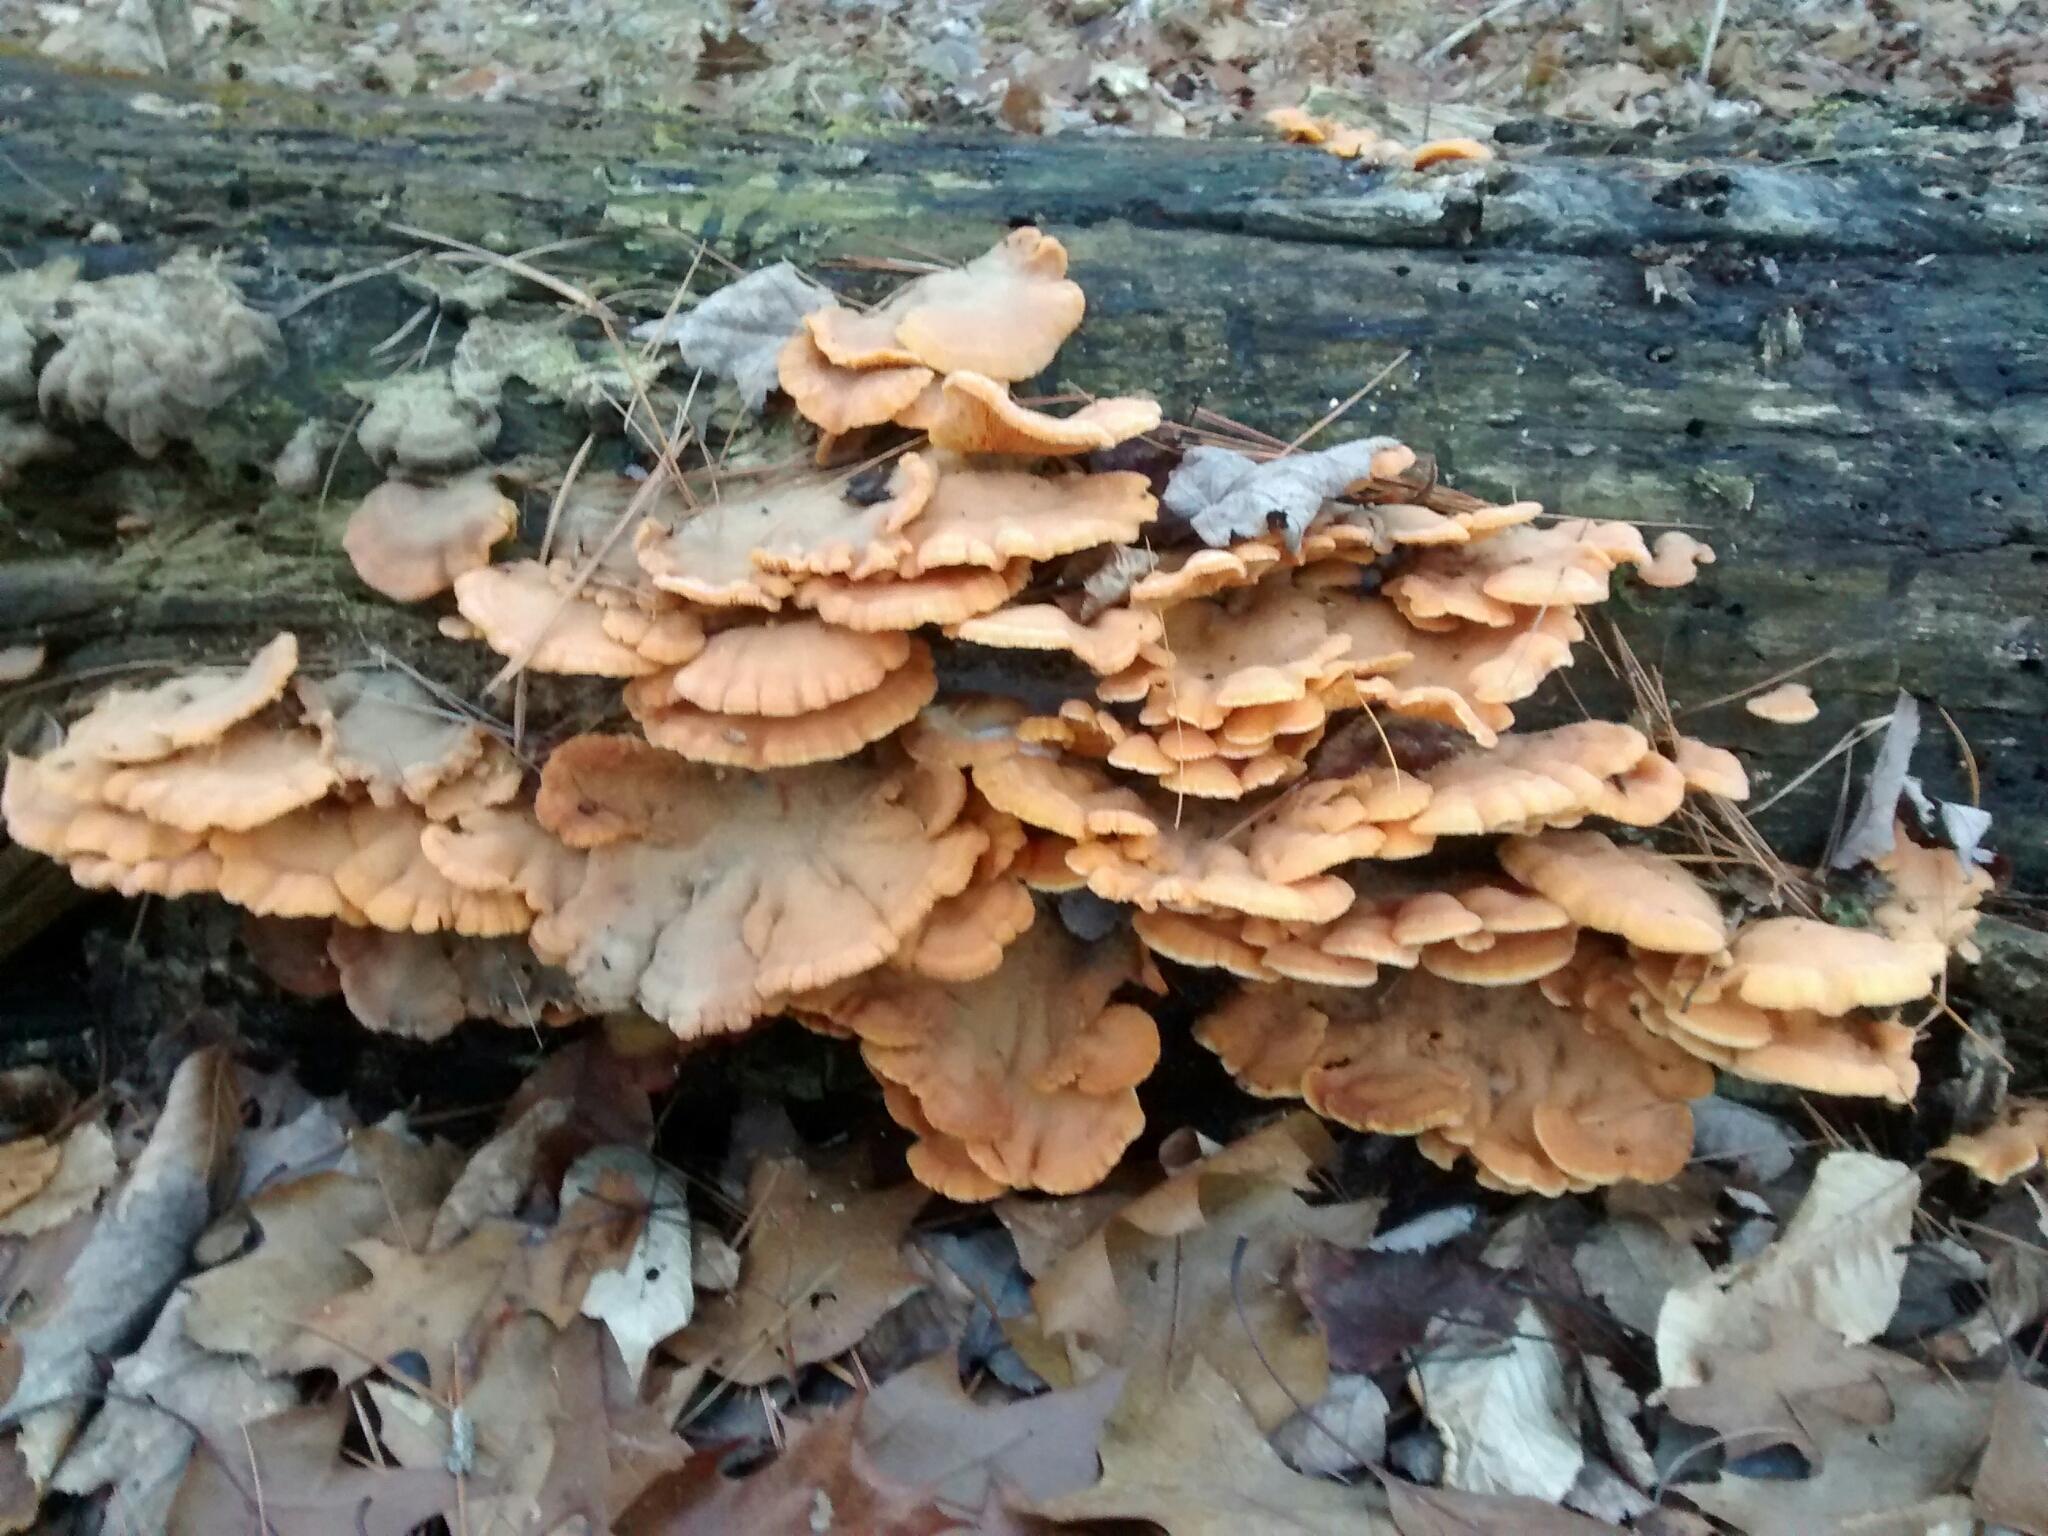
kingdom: Fungi
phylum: Basidiomycota
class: Agaricomycetes
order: Agaricales
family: Phyllotopsidaceae
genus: Phyllotopsis
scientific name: Phyllotopsis nidulans
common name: Orange mock oyster
